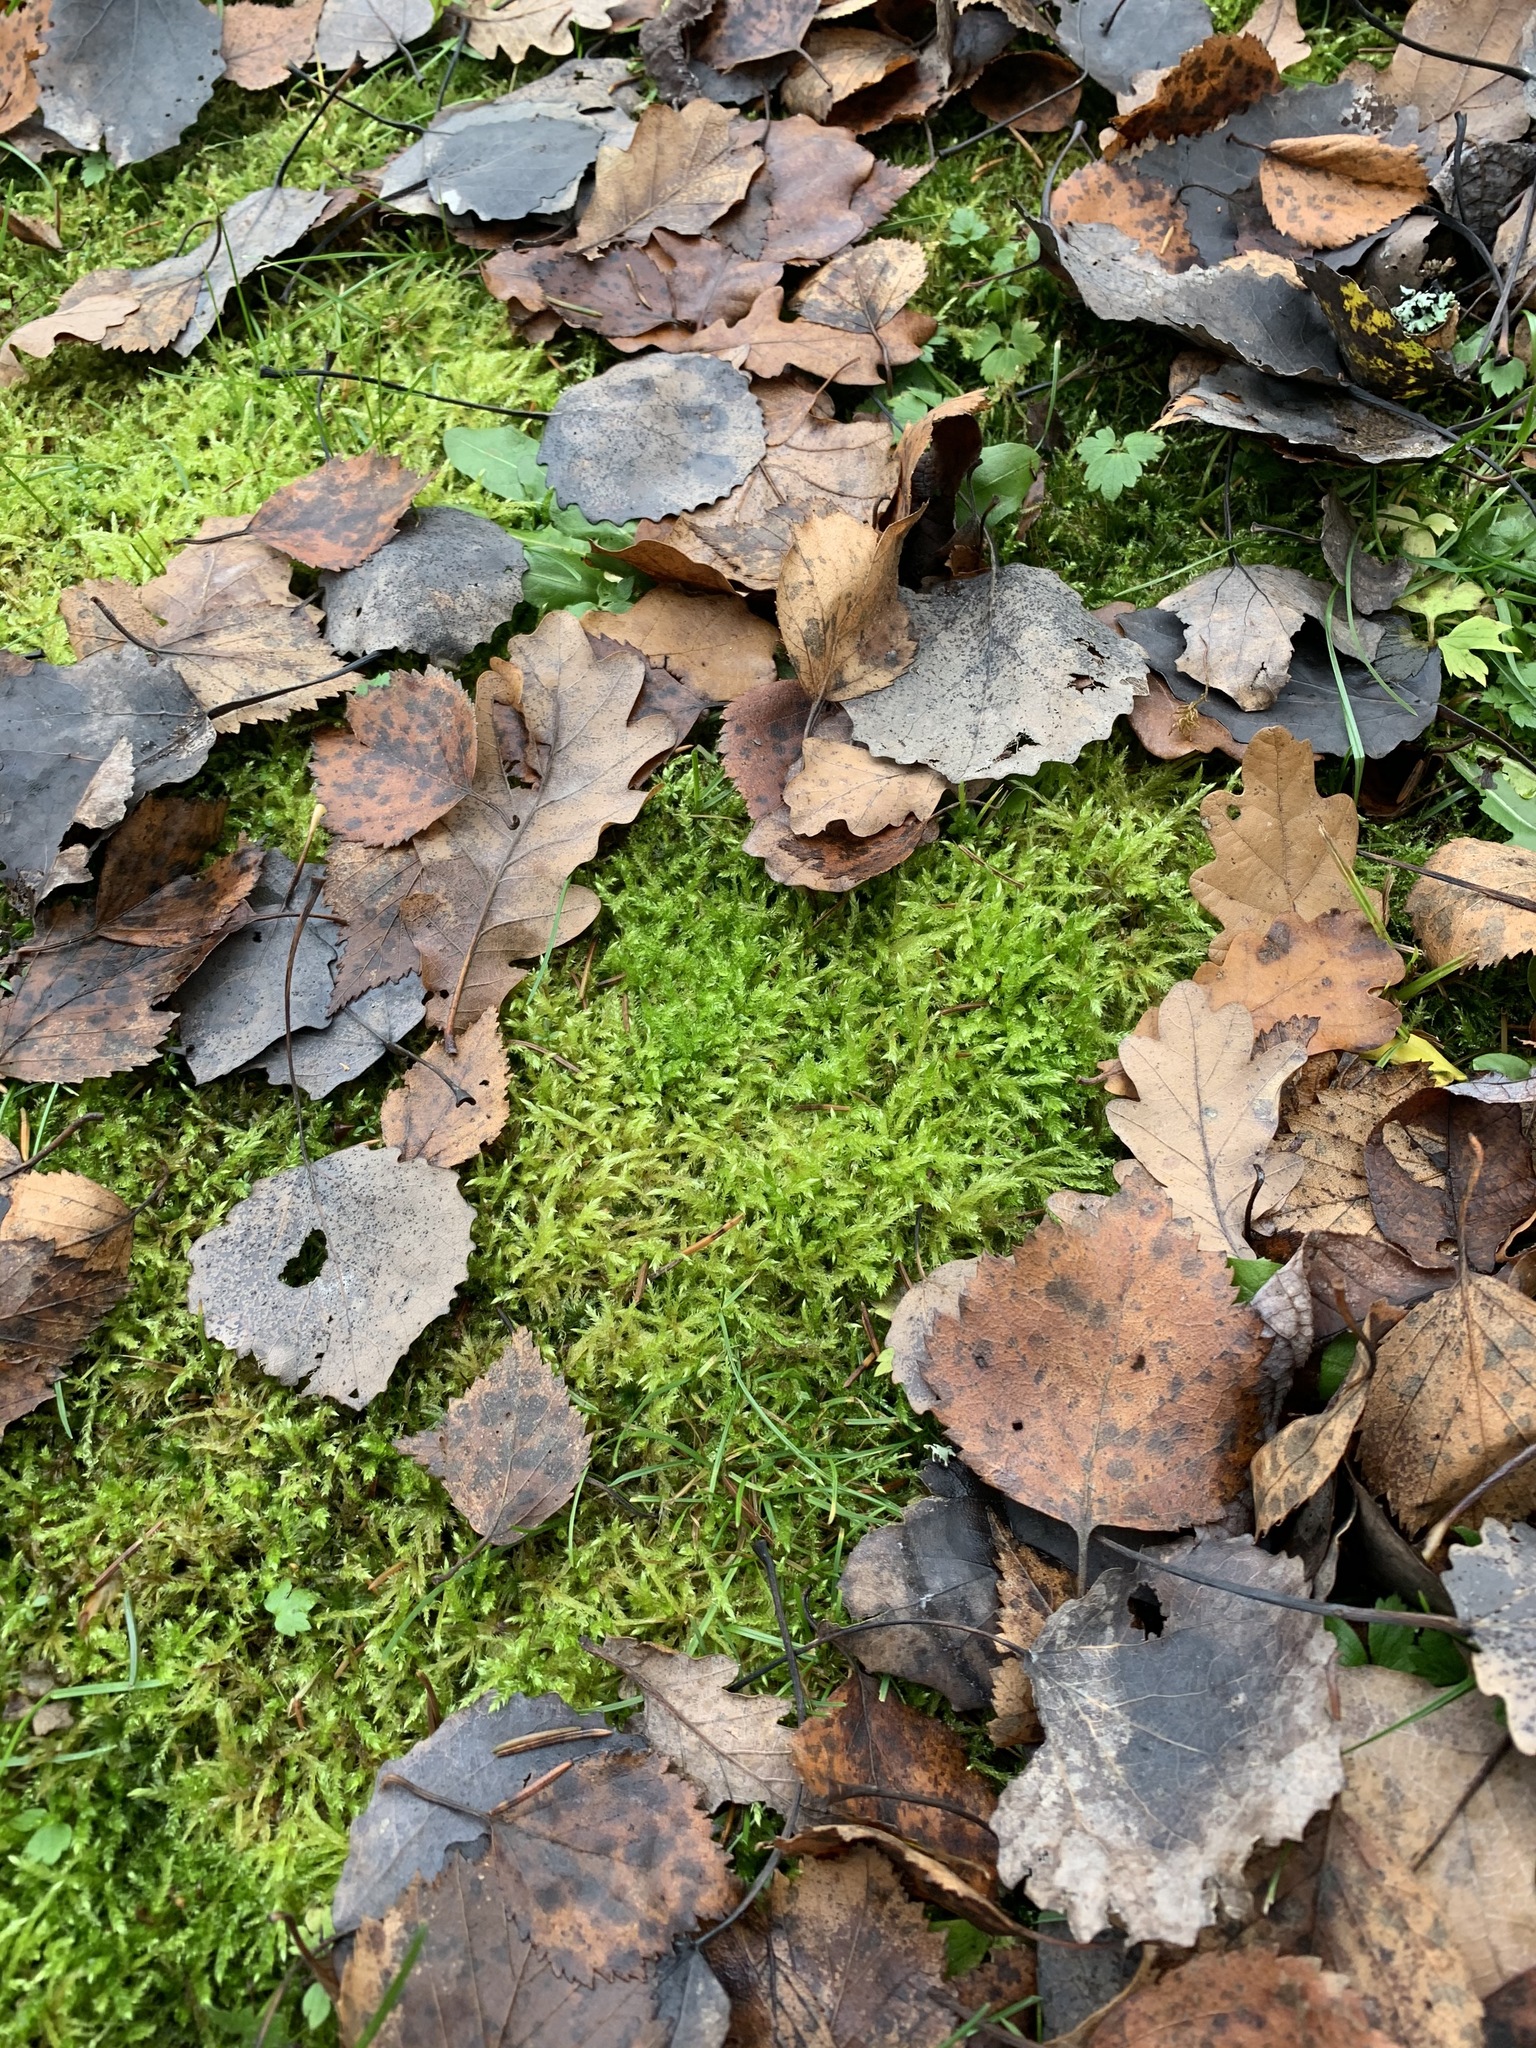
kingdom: Plantae
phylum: Bryophyta
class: Bryopsida
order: Hypnales
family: Brachytheciaceae
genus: Brachythecium
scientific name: Brachythecium rutabulum
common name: Rough-stalked feather-moss
